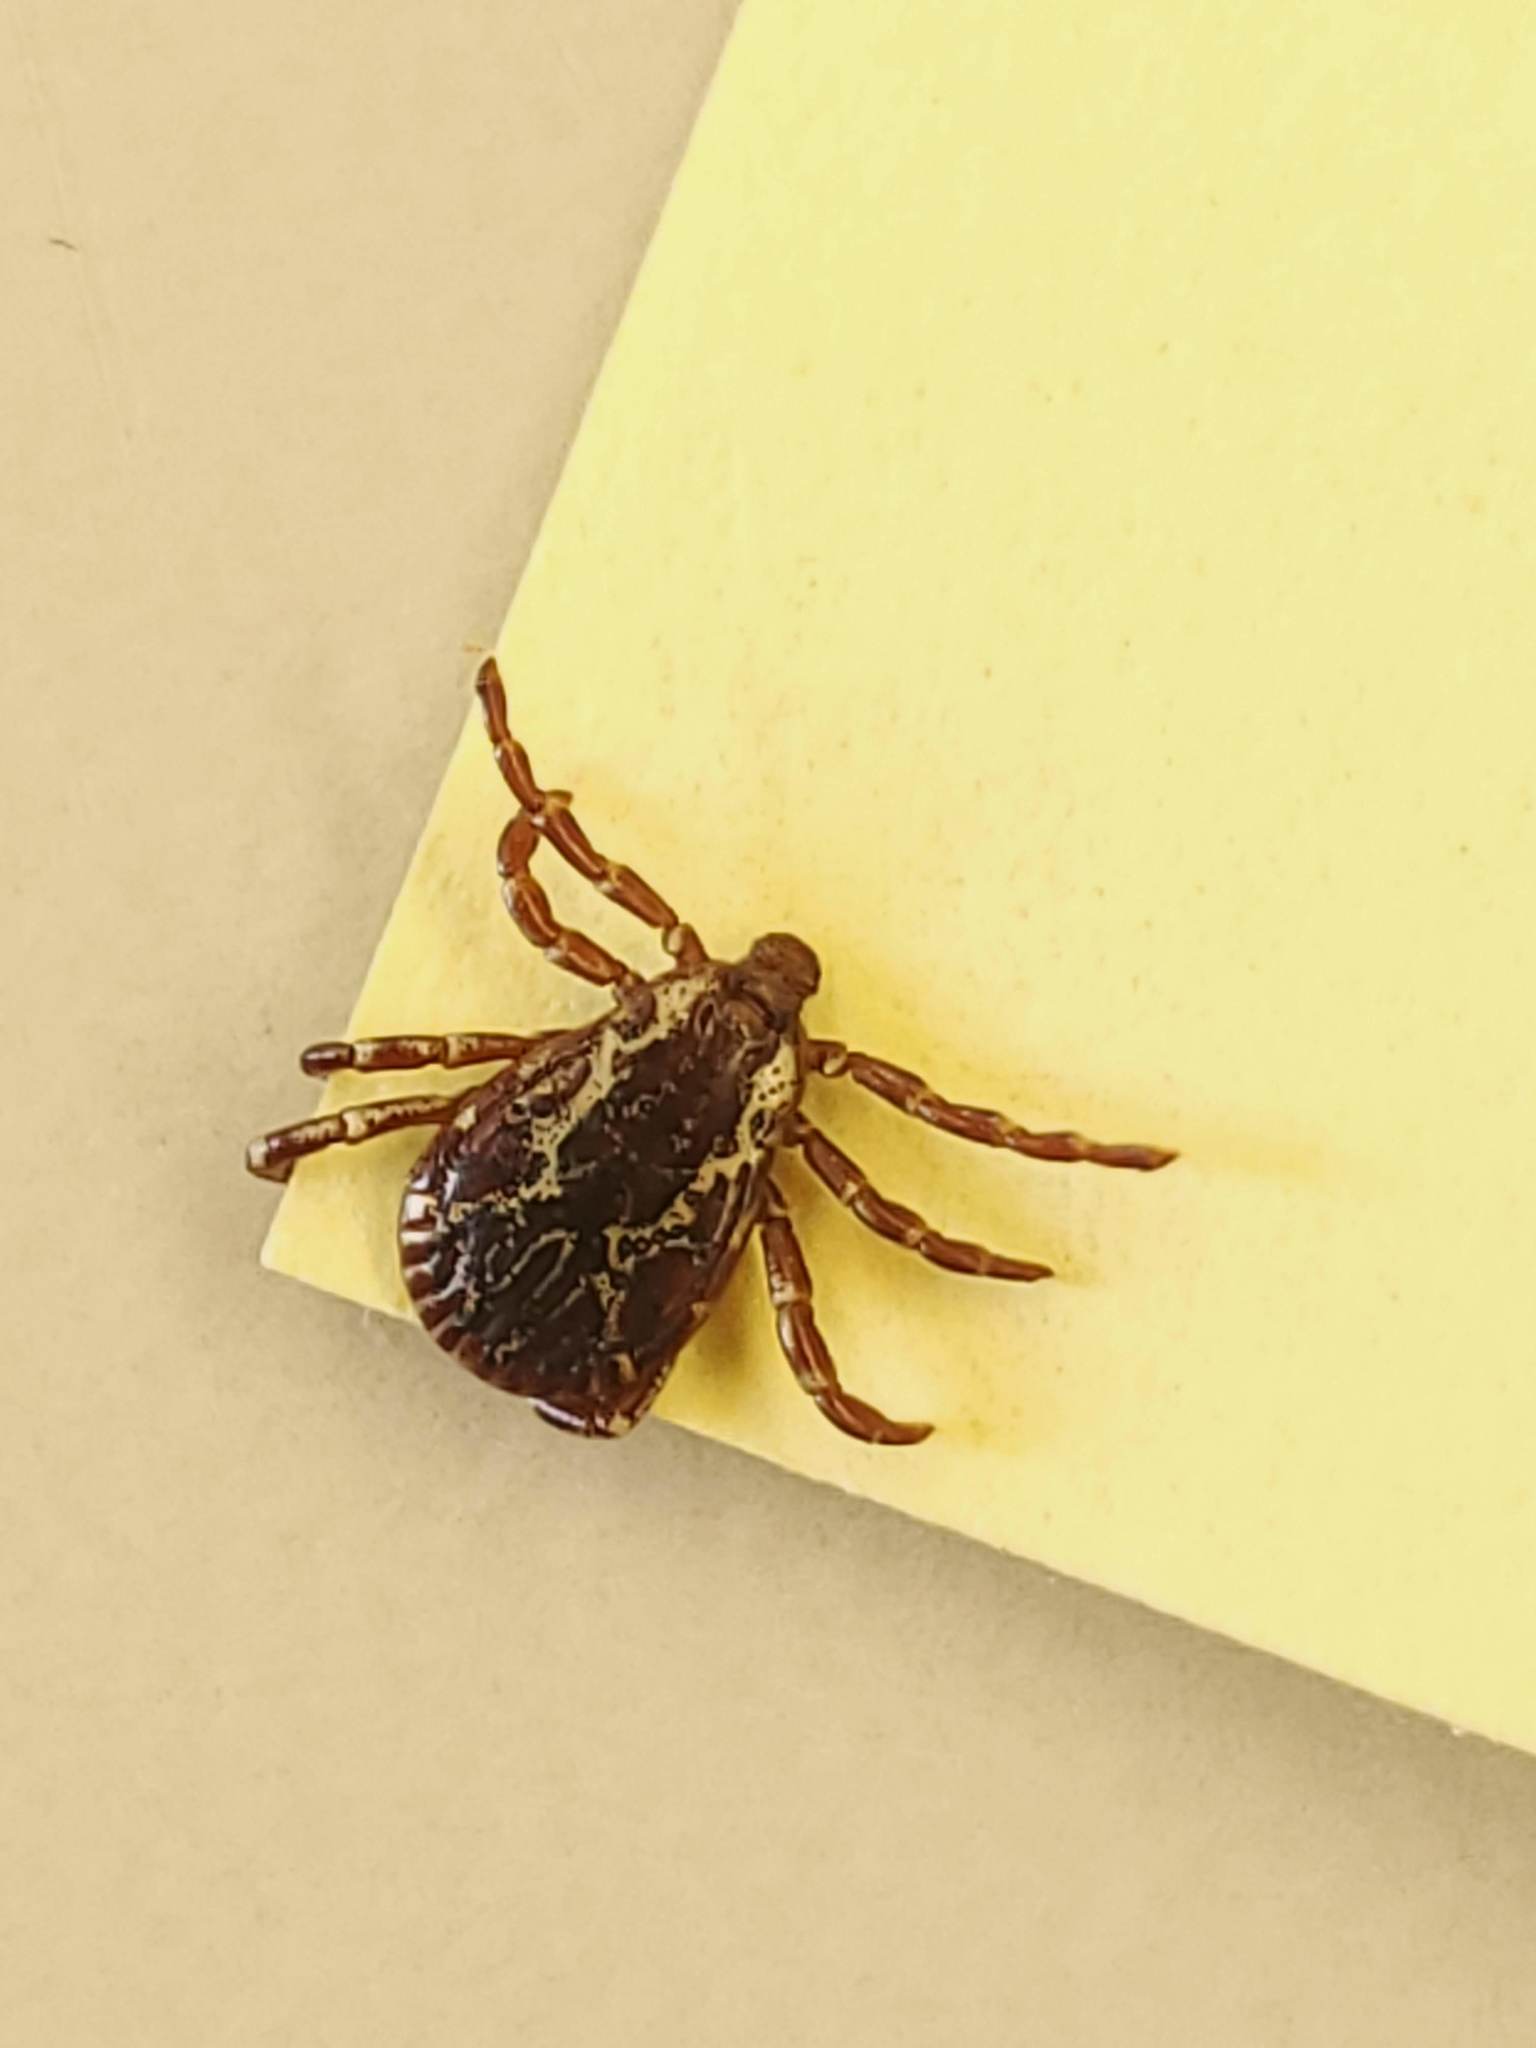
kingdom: Animalia
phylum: Arthropoda
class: Arachnida
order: Ixodida
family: Ixodidae
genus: Dermacentor
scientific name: Dermacentor variabilis
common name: American dog tick
